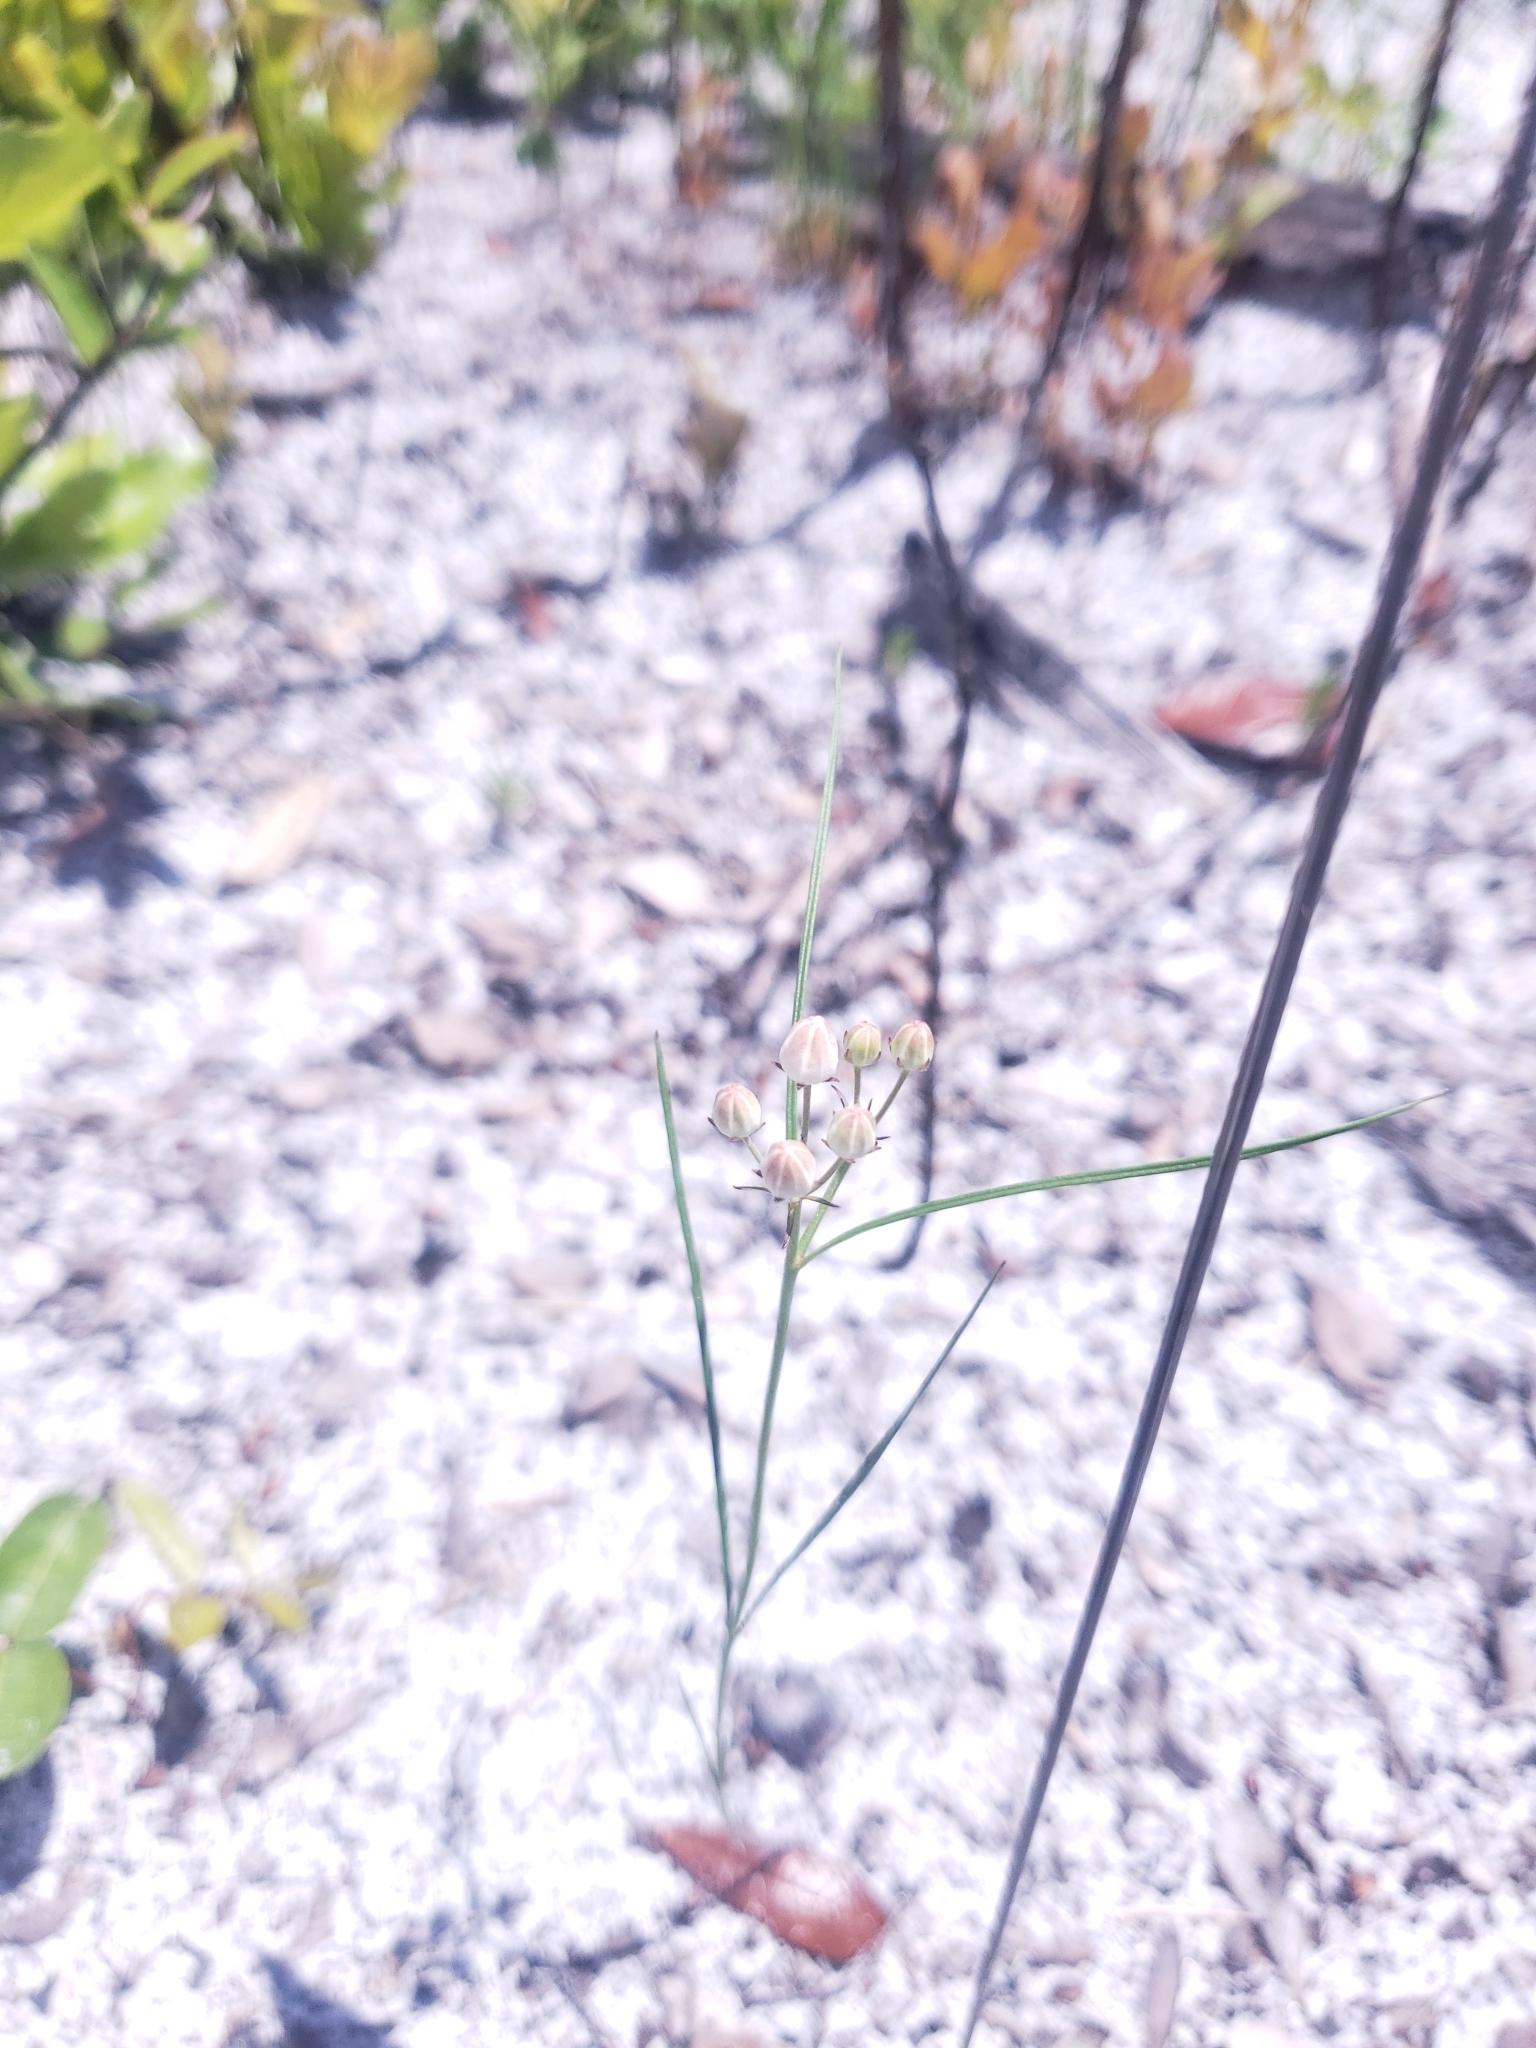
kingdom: Plantae
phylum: Tracheophyta
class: Magnoliopsida
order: Gentianales
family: Apocynaceae
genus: Asclepias
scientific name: Asclepias feayi
